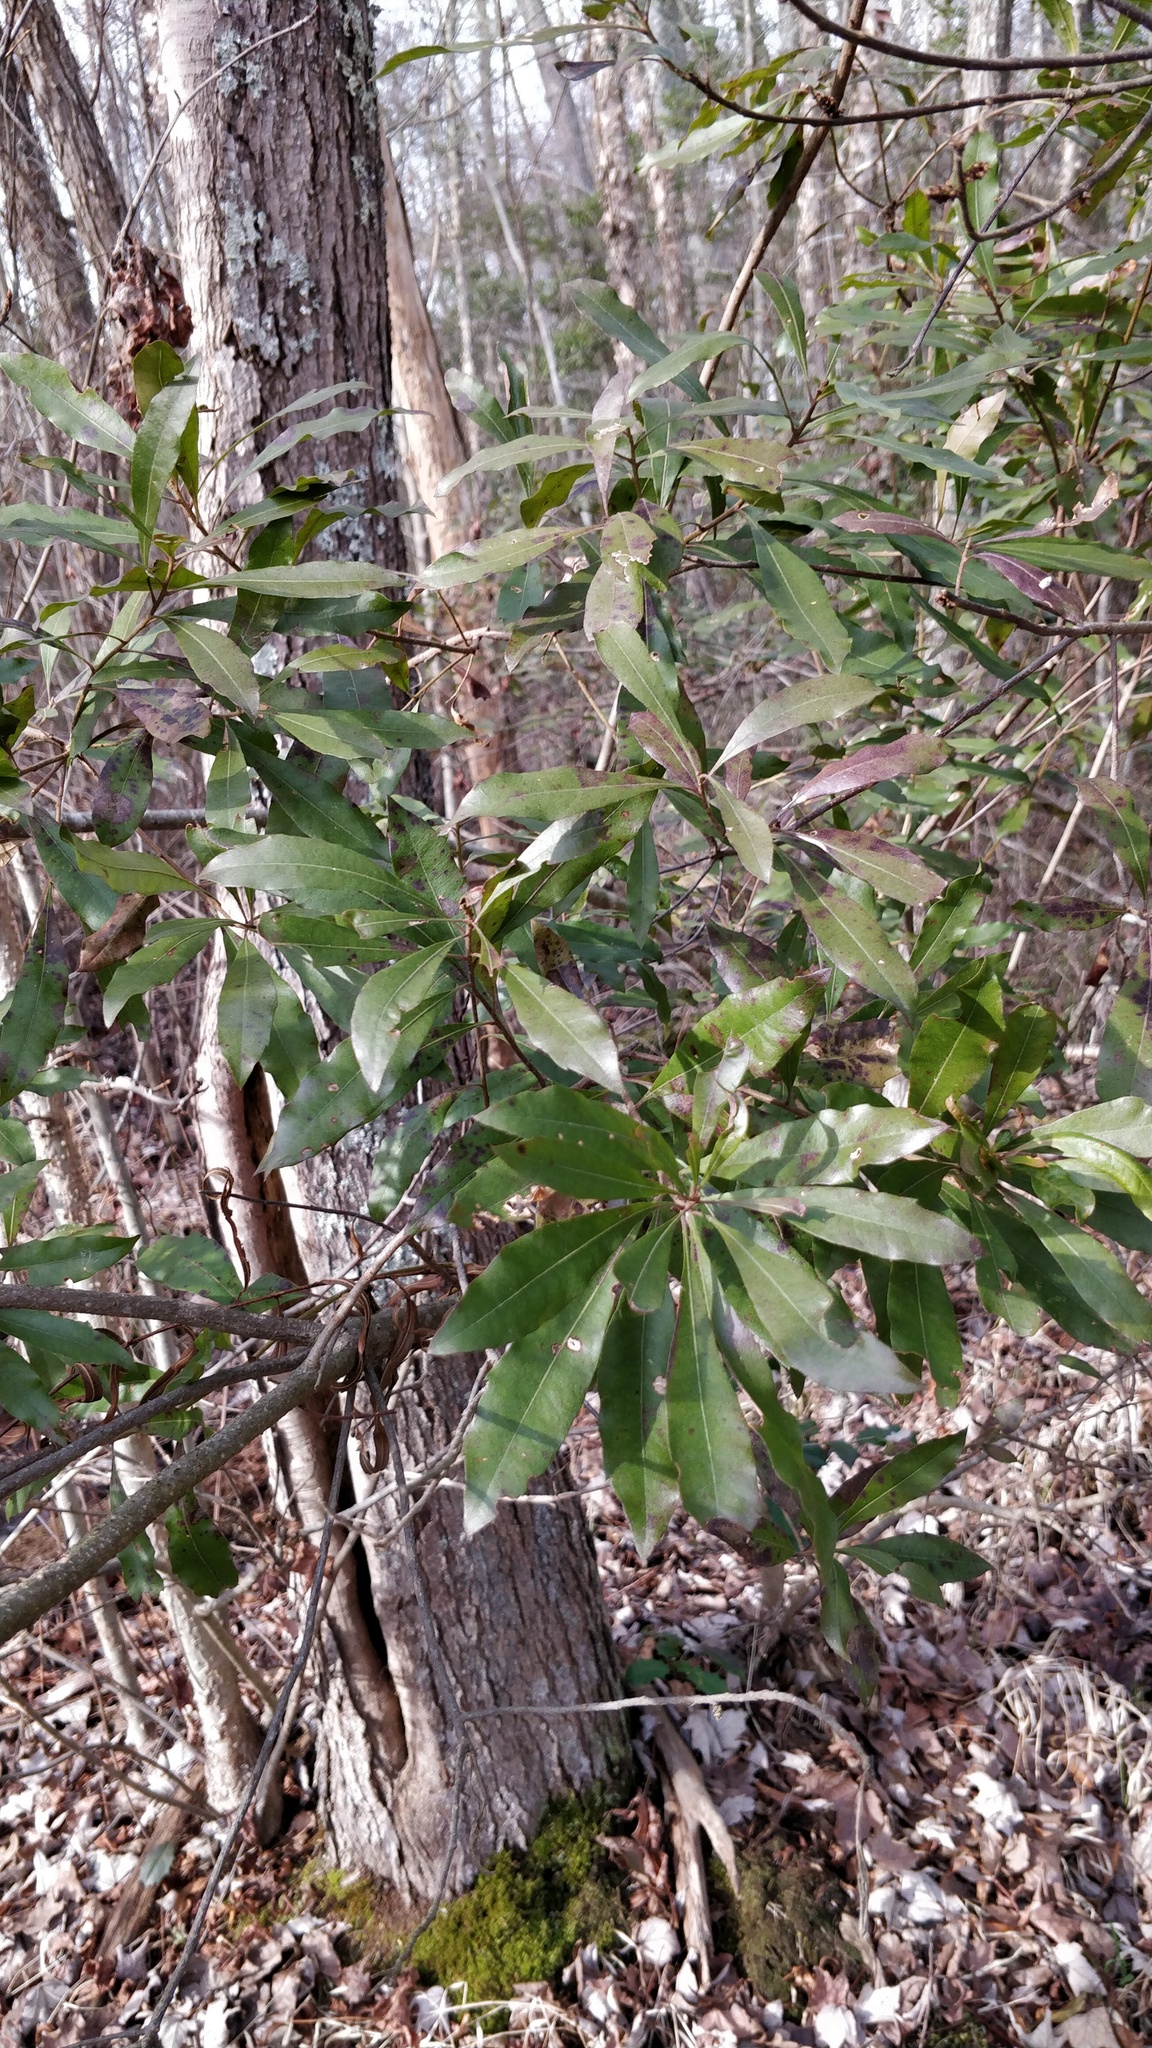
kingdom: Plantae
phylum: Tracheophyta
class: Magnoliopsida
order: Fagales
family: Myricaceae
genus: Morella
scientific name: Morella cerifera
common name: Wax myrtle
